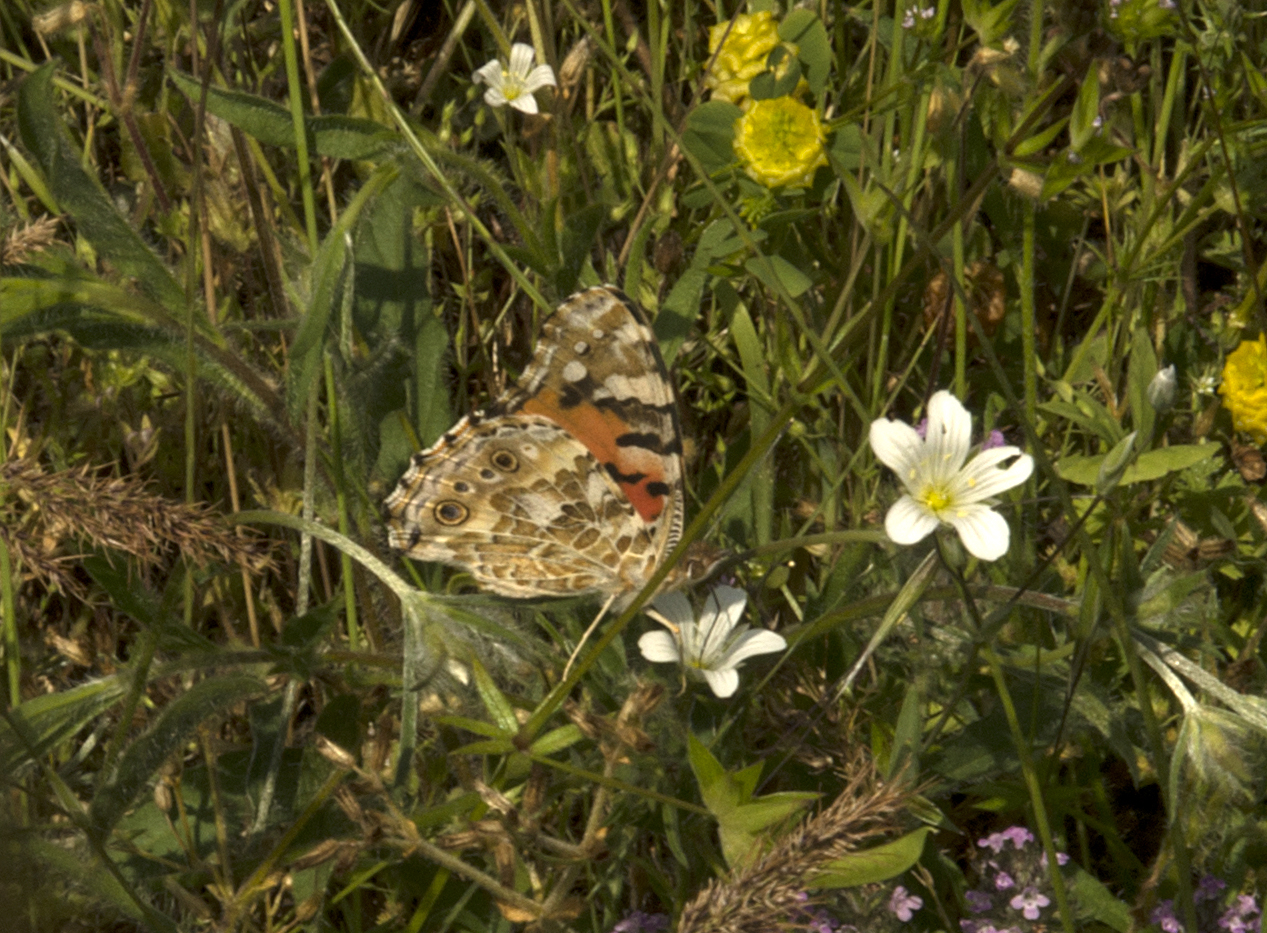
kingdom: Animalia
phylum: Arthropoda
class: Insecta
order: Lepidoptera
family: Nymphalidae
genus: Vanessa
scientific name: Vanessa cardui
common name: Painted lady
